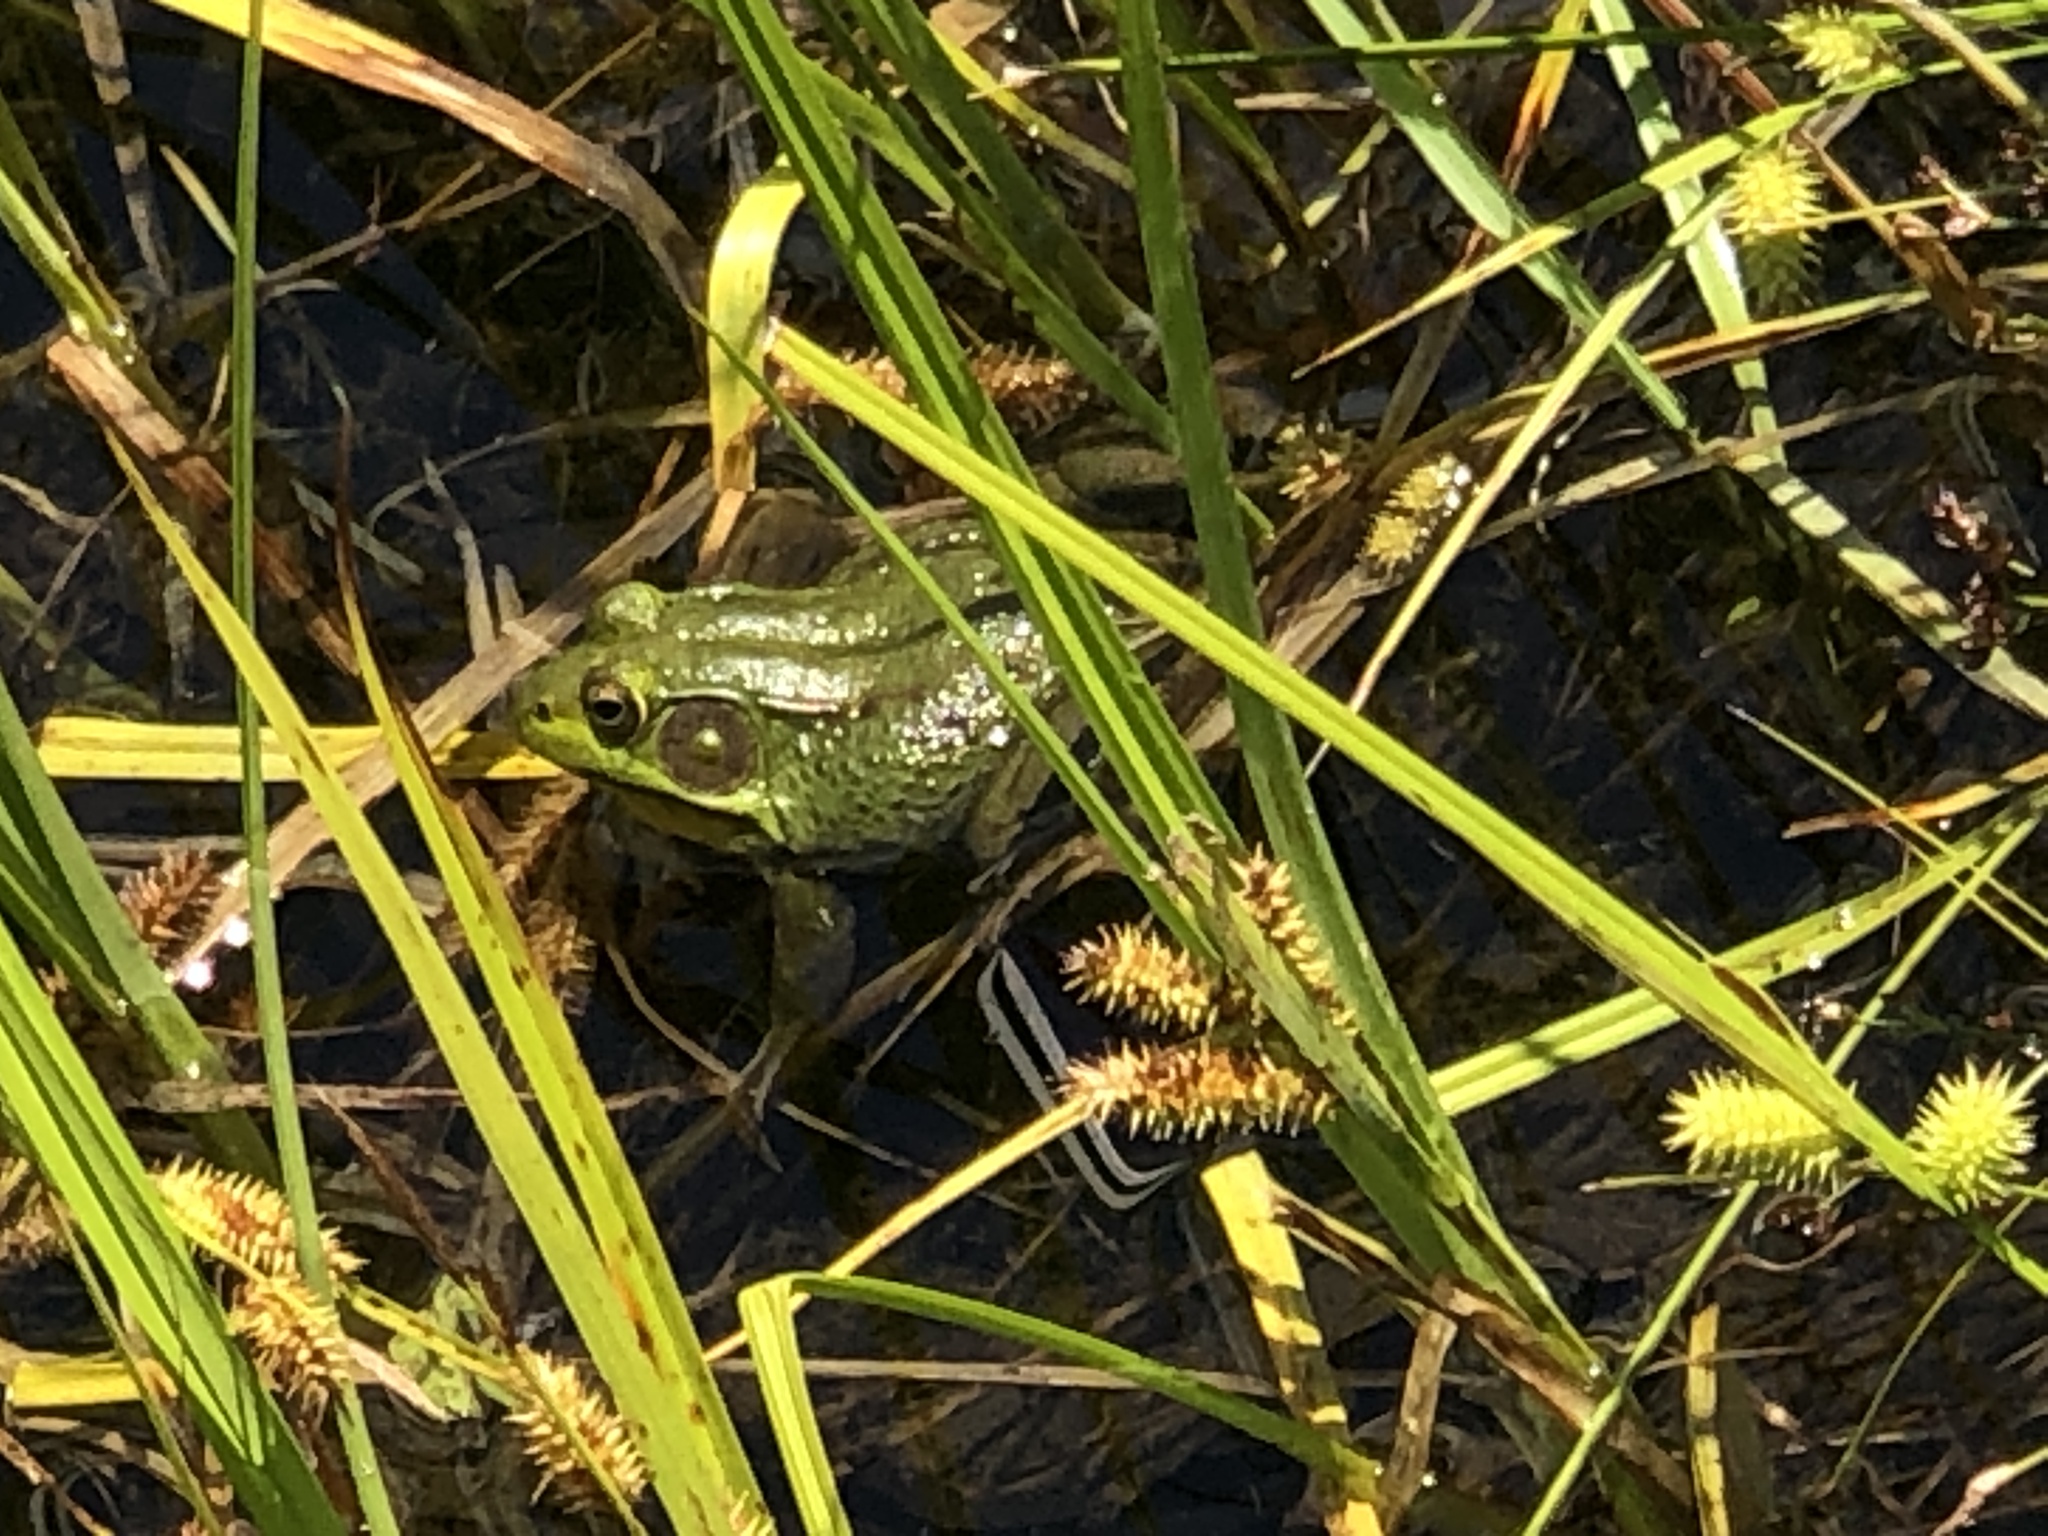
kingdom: Animalia
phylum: Chordata
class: Amphibia
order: Anura
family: Ranidae
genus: Lithobates
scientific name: Lithobates clamitans
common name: Green frog
